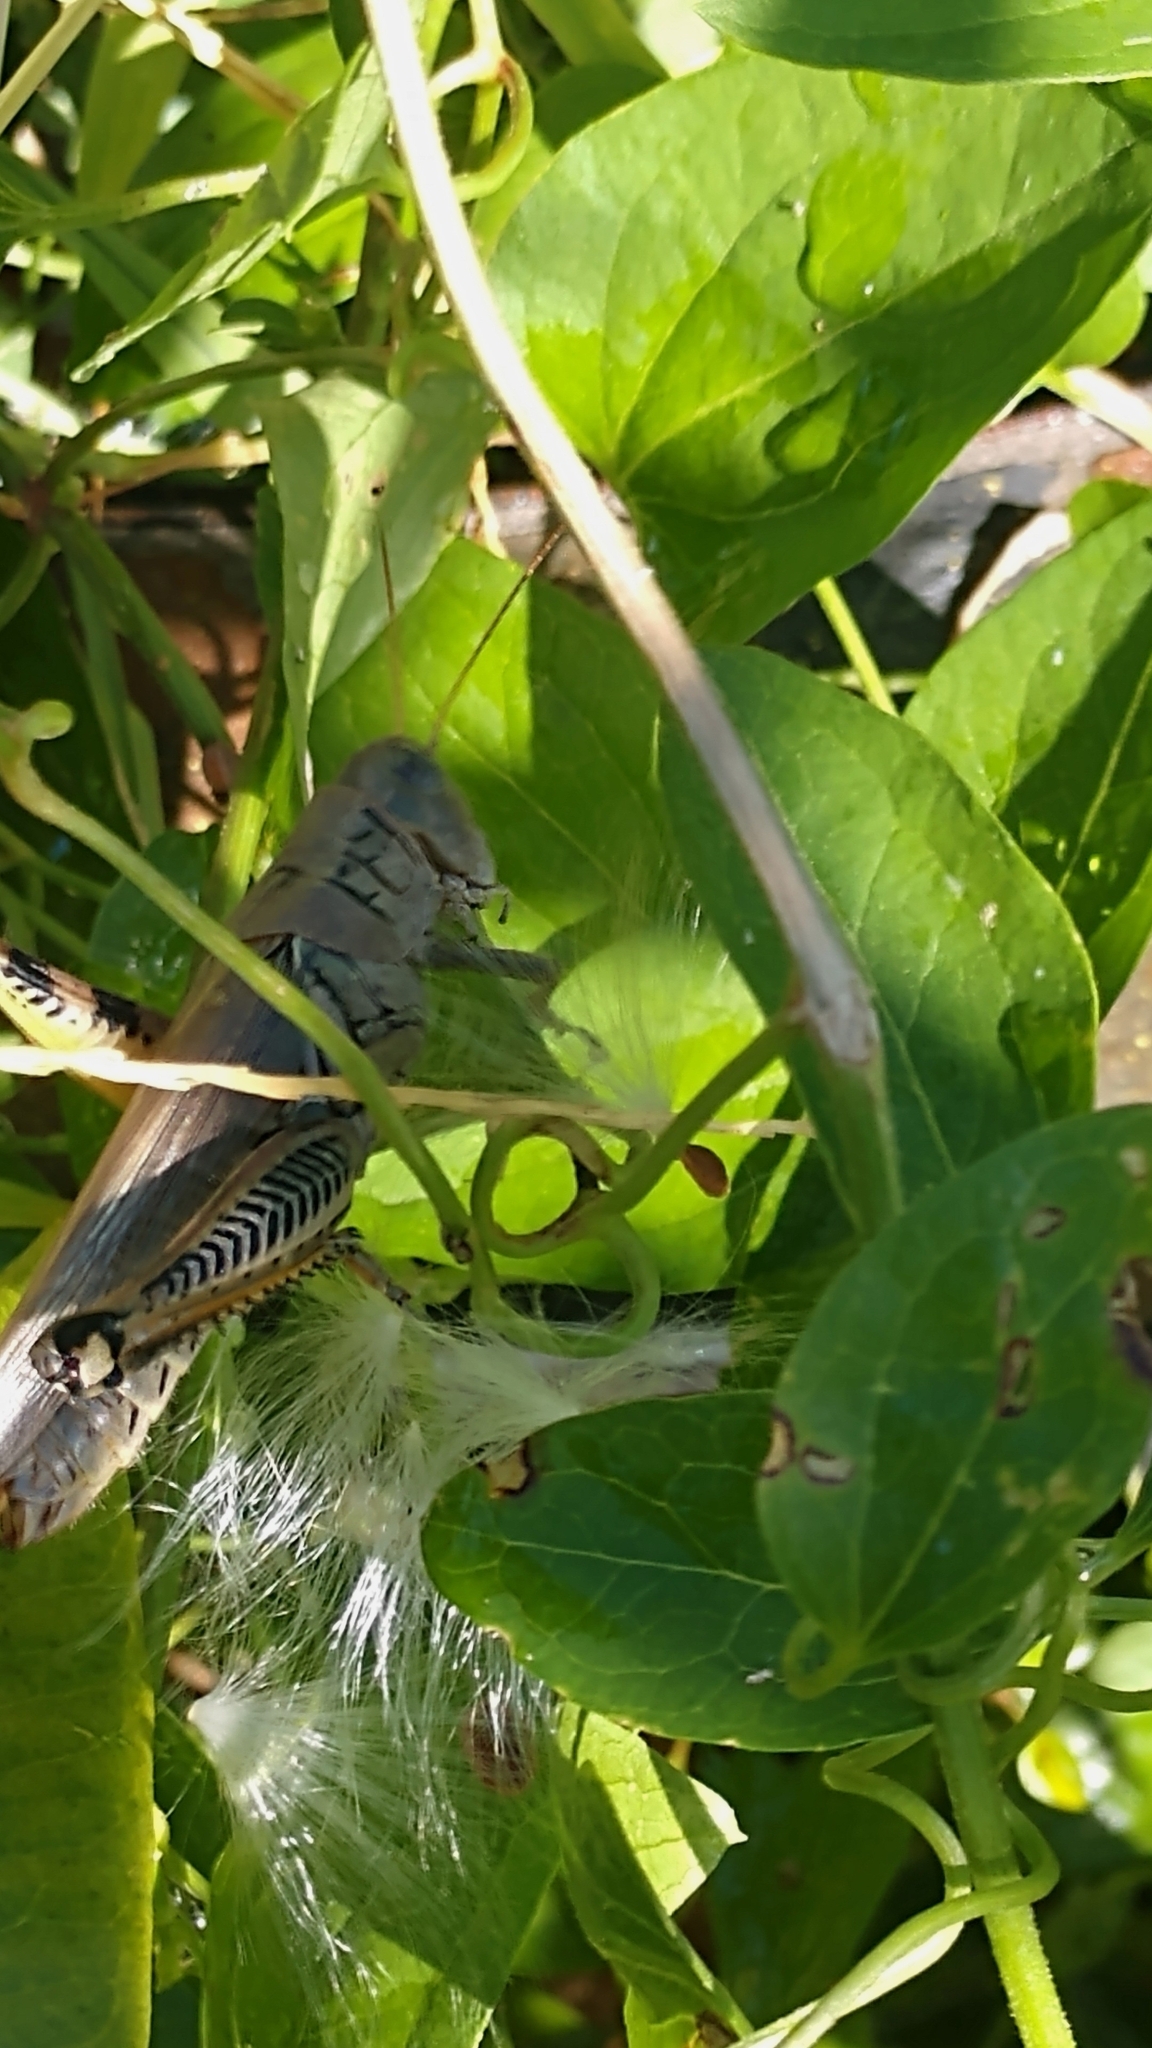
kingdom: Animalia
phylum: Arthropoda
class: Insecta
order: Orthoptera
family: Acrididae
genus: Melanoplus
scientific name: Melanoplus differentialis
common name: Differential grasshopper
